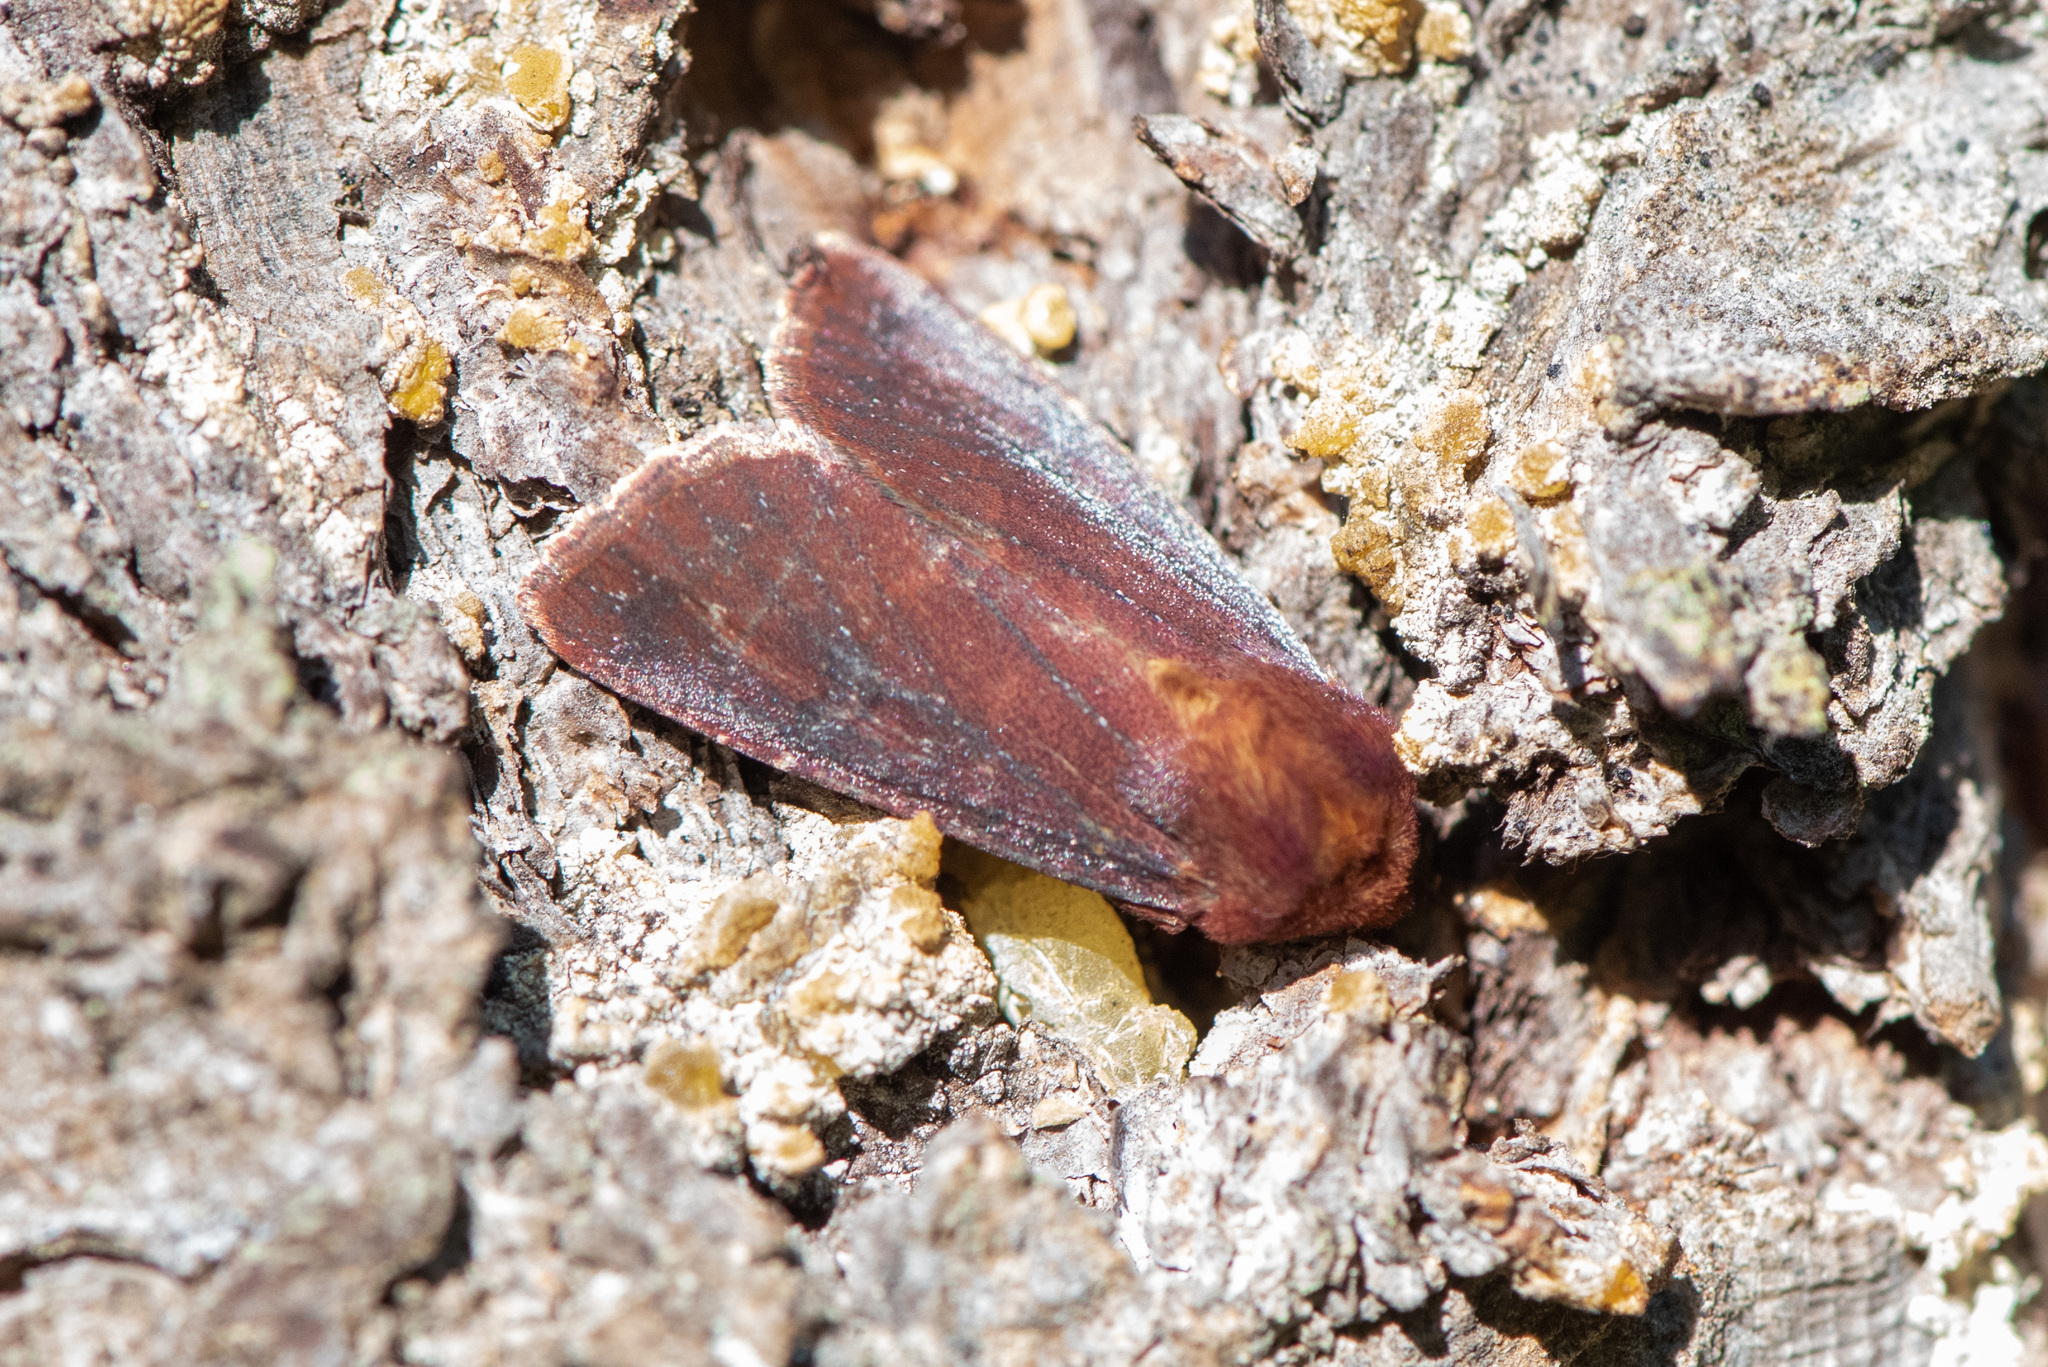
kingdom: Animalia
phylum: Arthropoda
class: Insecta
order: Lepidoptera
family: Noctuidae
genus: Sideridis
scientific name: Sideridis maryx
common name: Maroonwing moth
